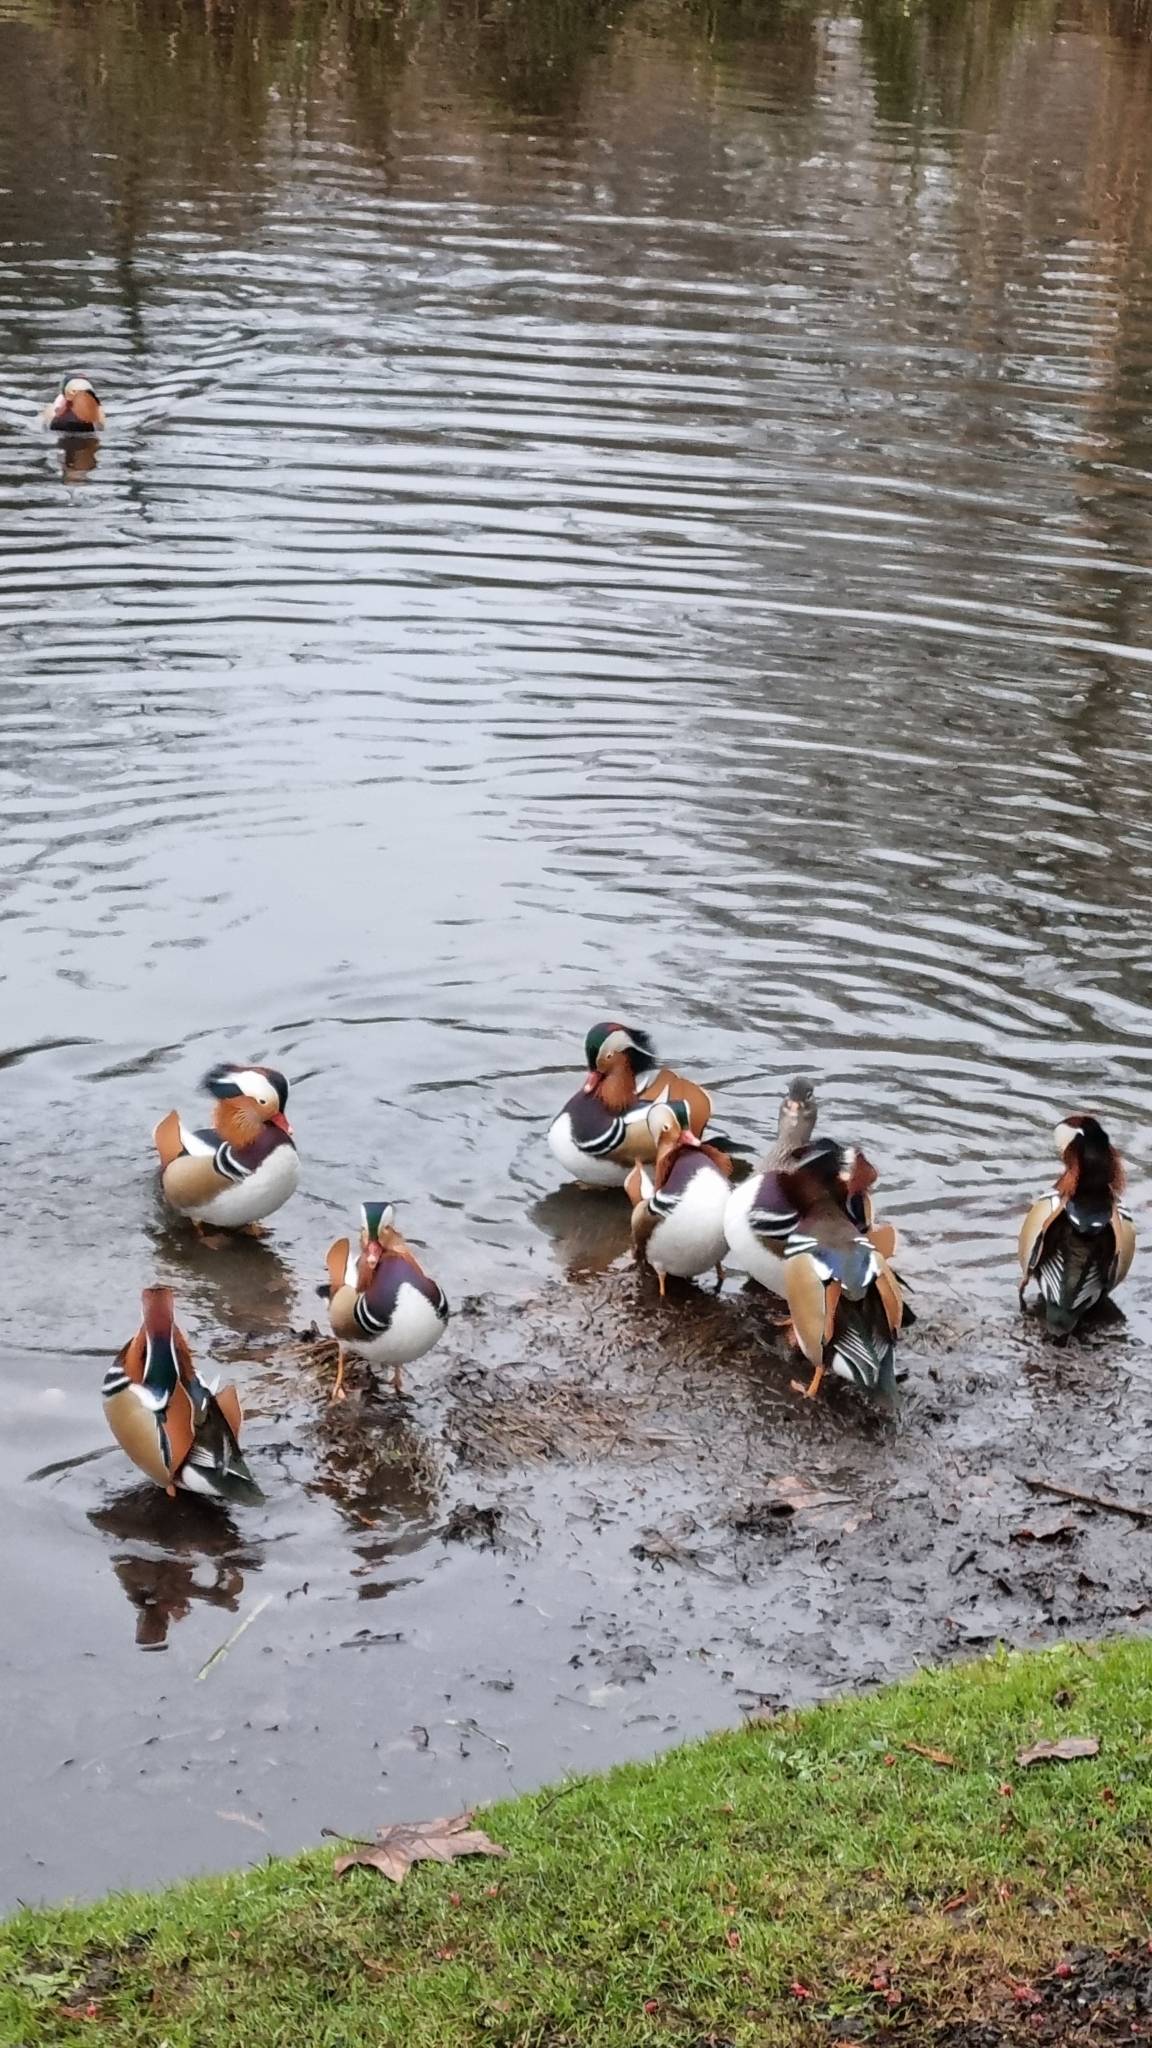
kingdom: Animalia
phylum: Chordata
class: Aves
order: Anseriformes
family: Anatidae
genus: Aix
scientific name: Aix galericulata
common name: Mandarin duck
